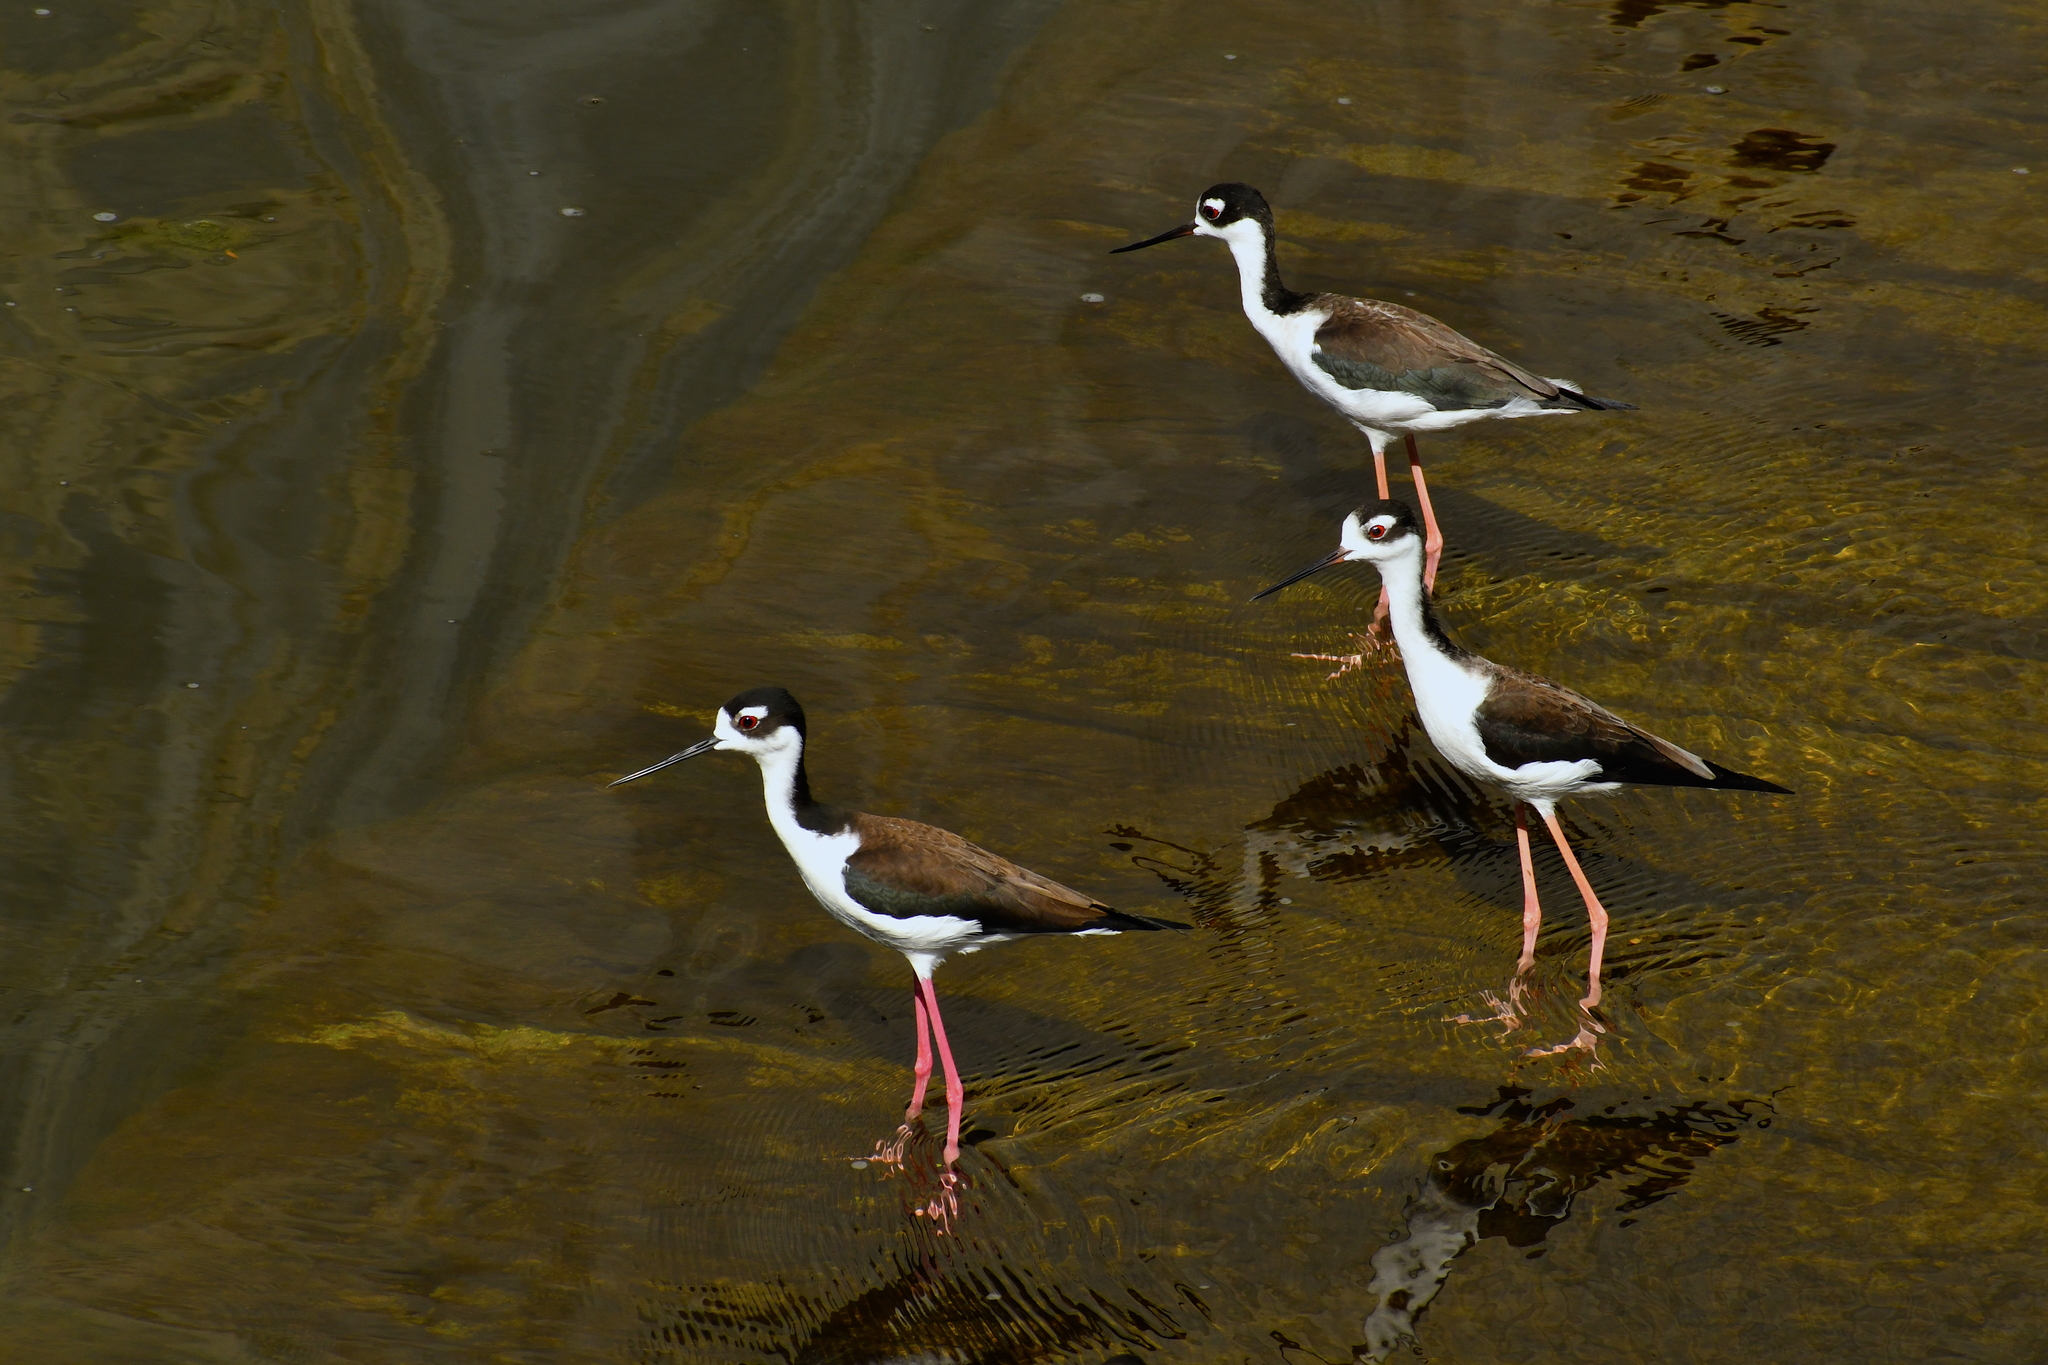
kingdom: Animalia
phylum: Chordata
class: Aves
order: Charadriiformes
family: Recurvirostridae
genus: Himantopus
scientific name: Himantopus mexicanus
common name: Black-necked stilt
